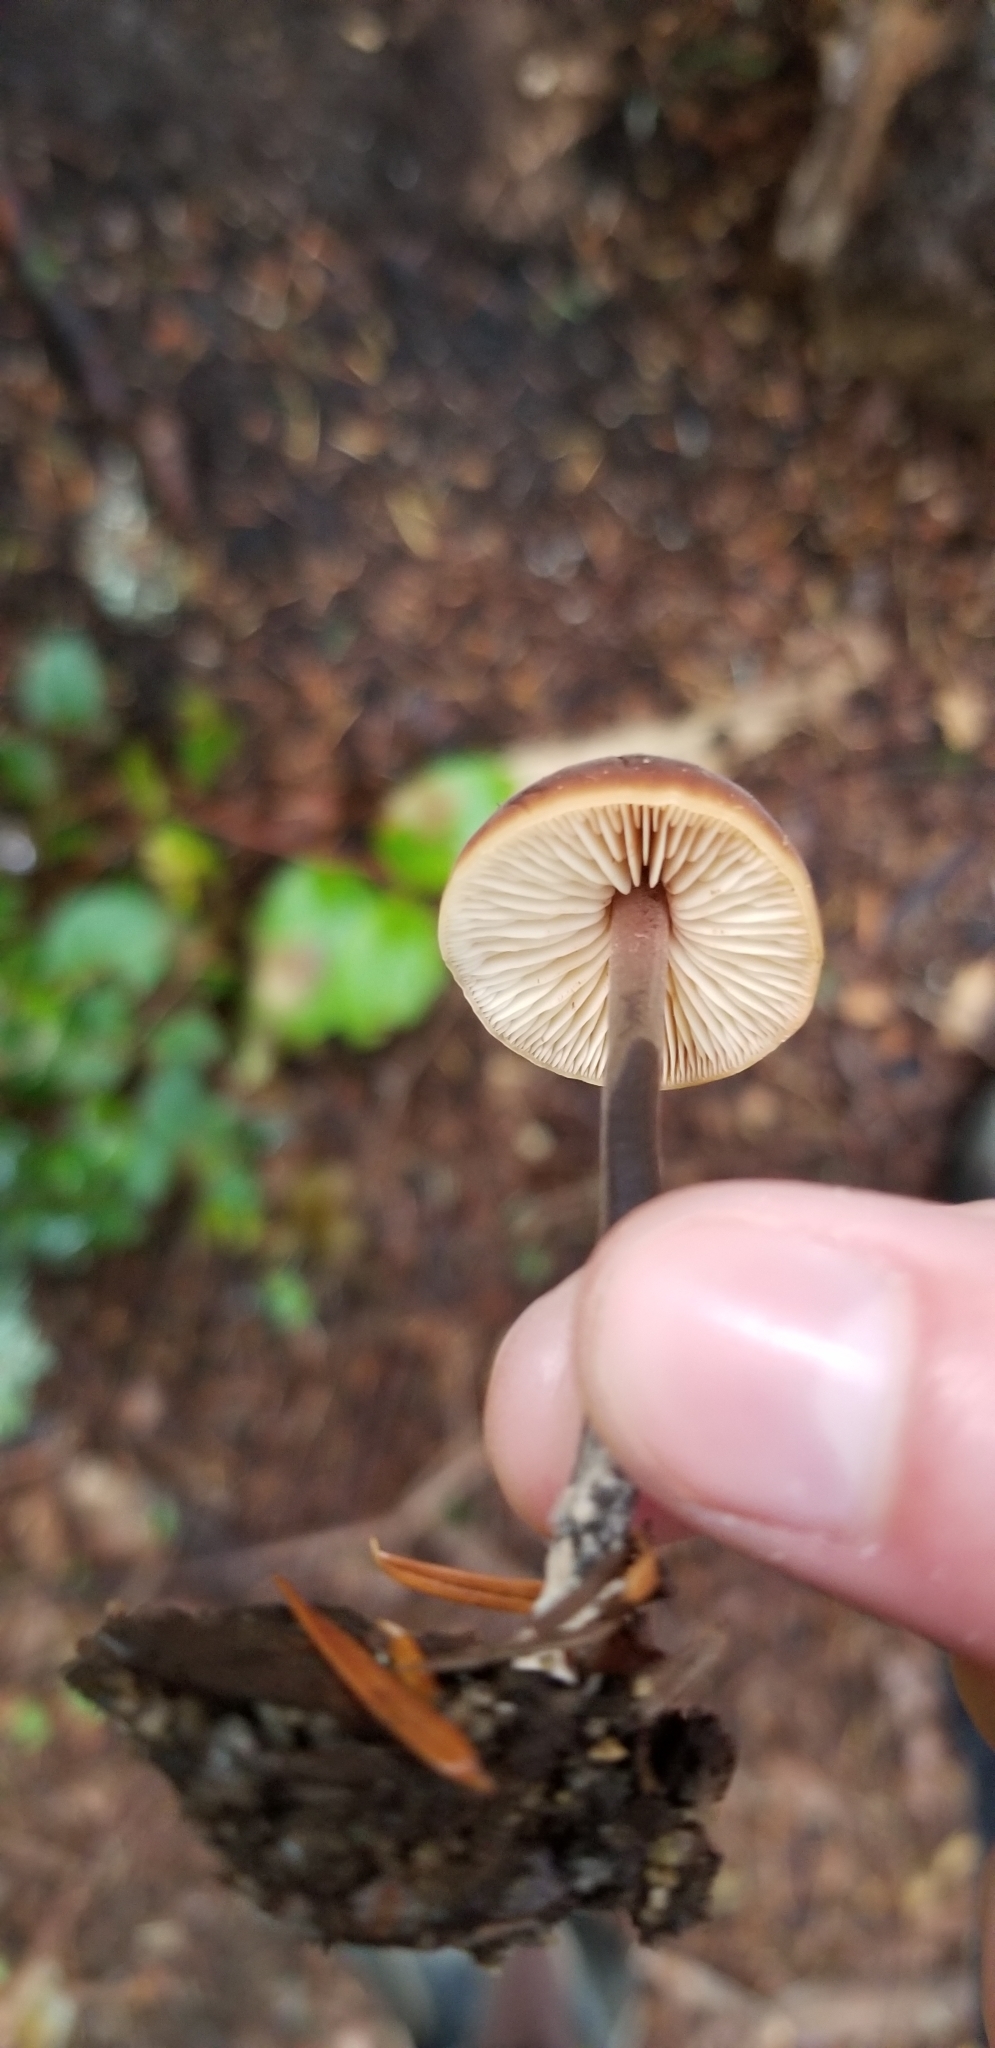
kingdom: Fungi
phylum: Basidiomycota
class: Agaricomycetes
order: Agaricales
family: Macrocystidiaceae
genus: Macrocystidia
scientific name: Macrocystidia cucumis
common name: Cucumber cap
